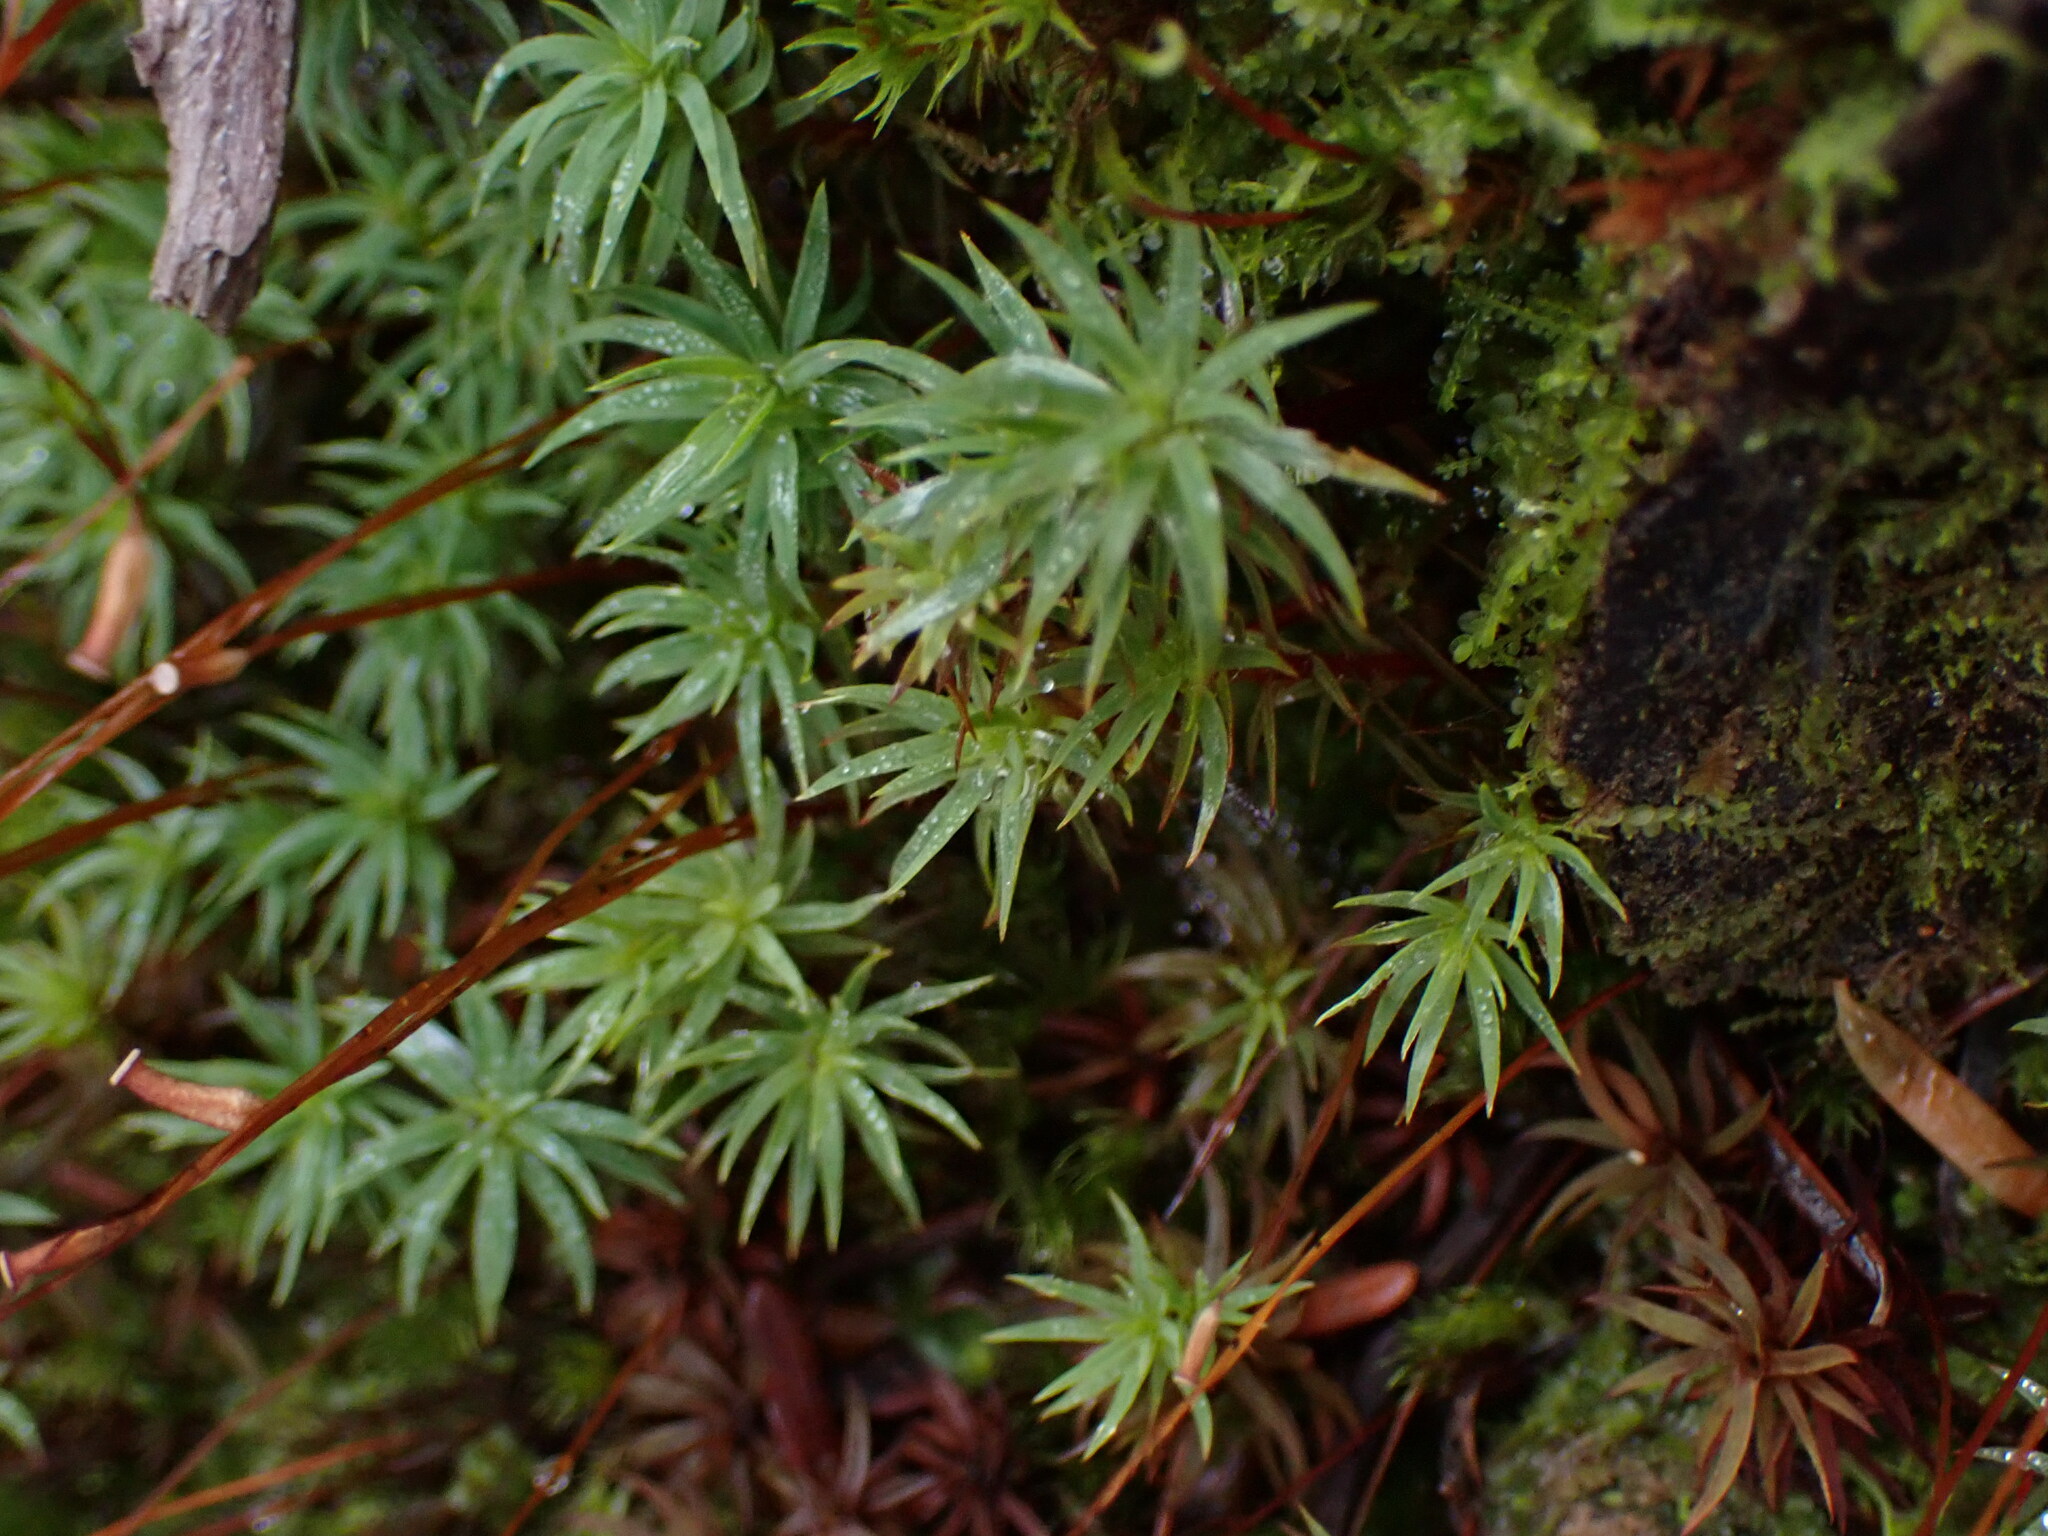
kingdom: Plantae
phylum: Bryophyta
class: Polytrichopsida
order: Polytrichales
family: Polytrichaceae
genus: Pogonatum
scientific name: Pogonatum urnigerum
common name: Urn hair moss
